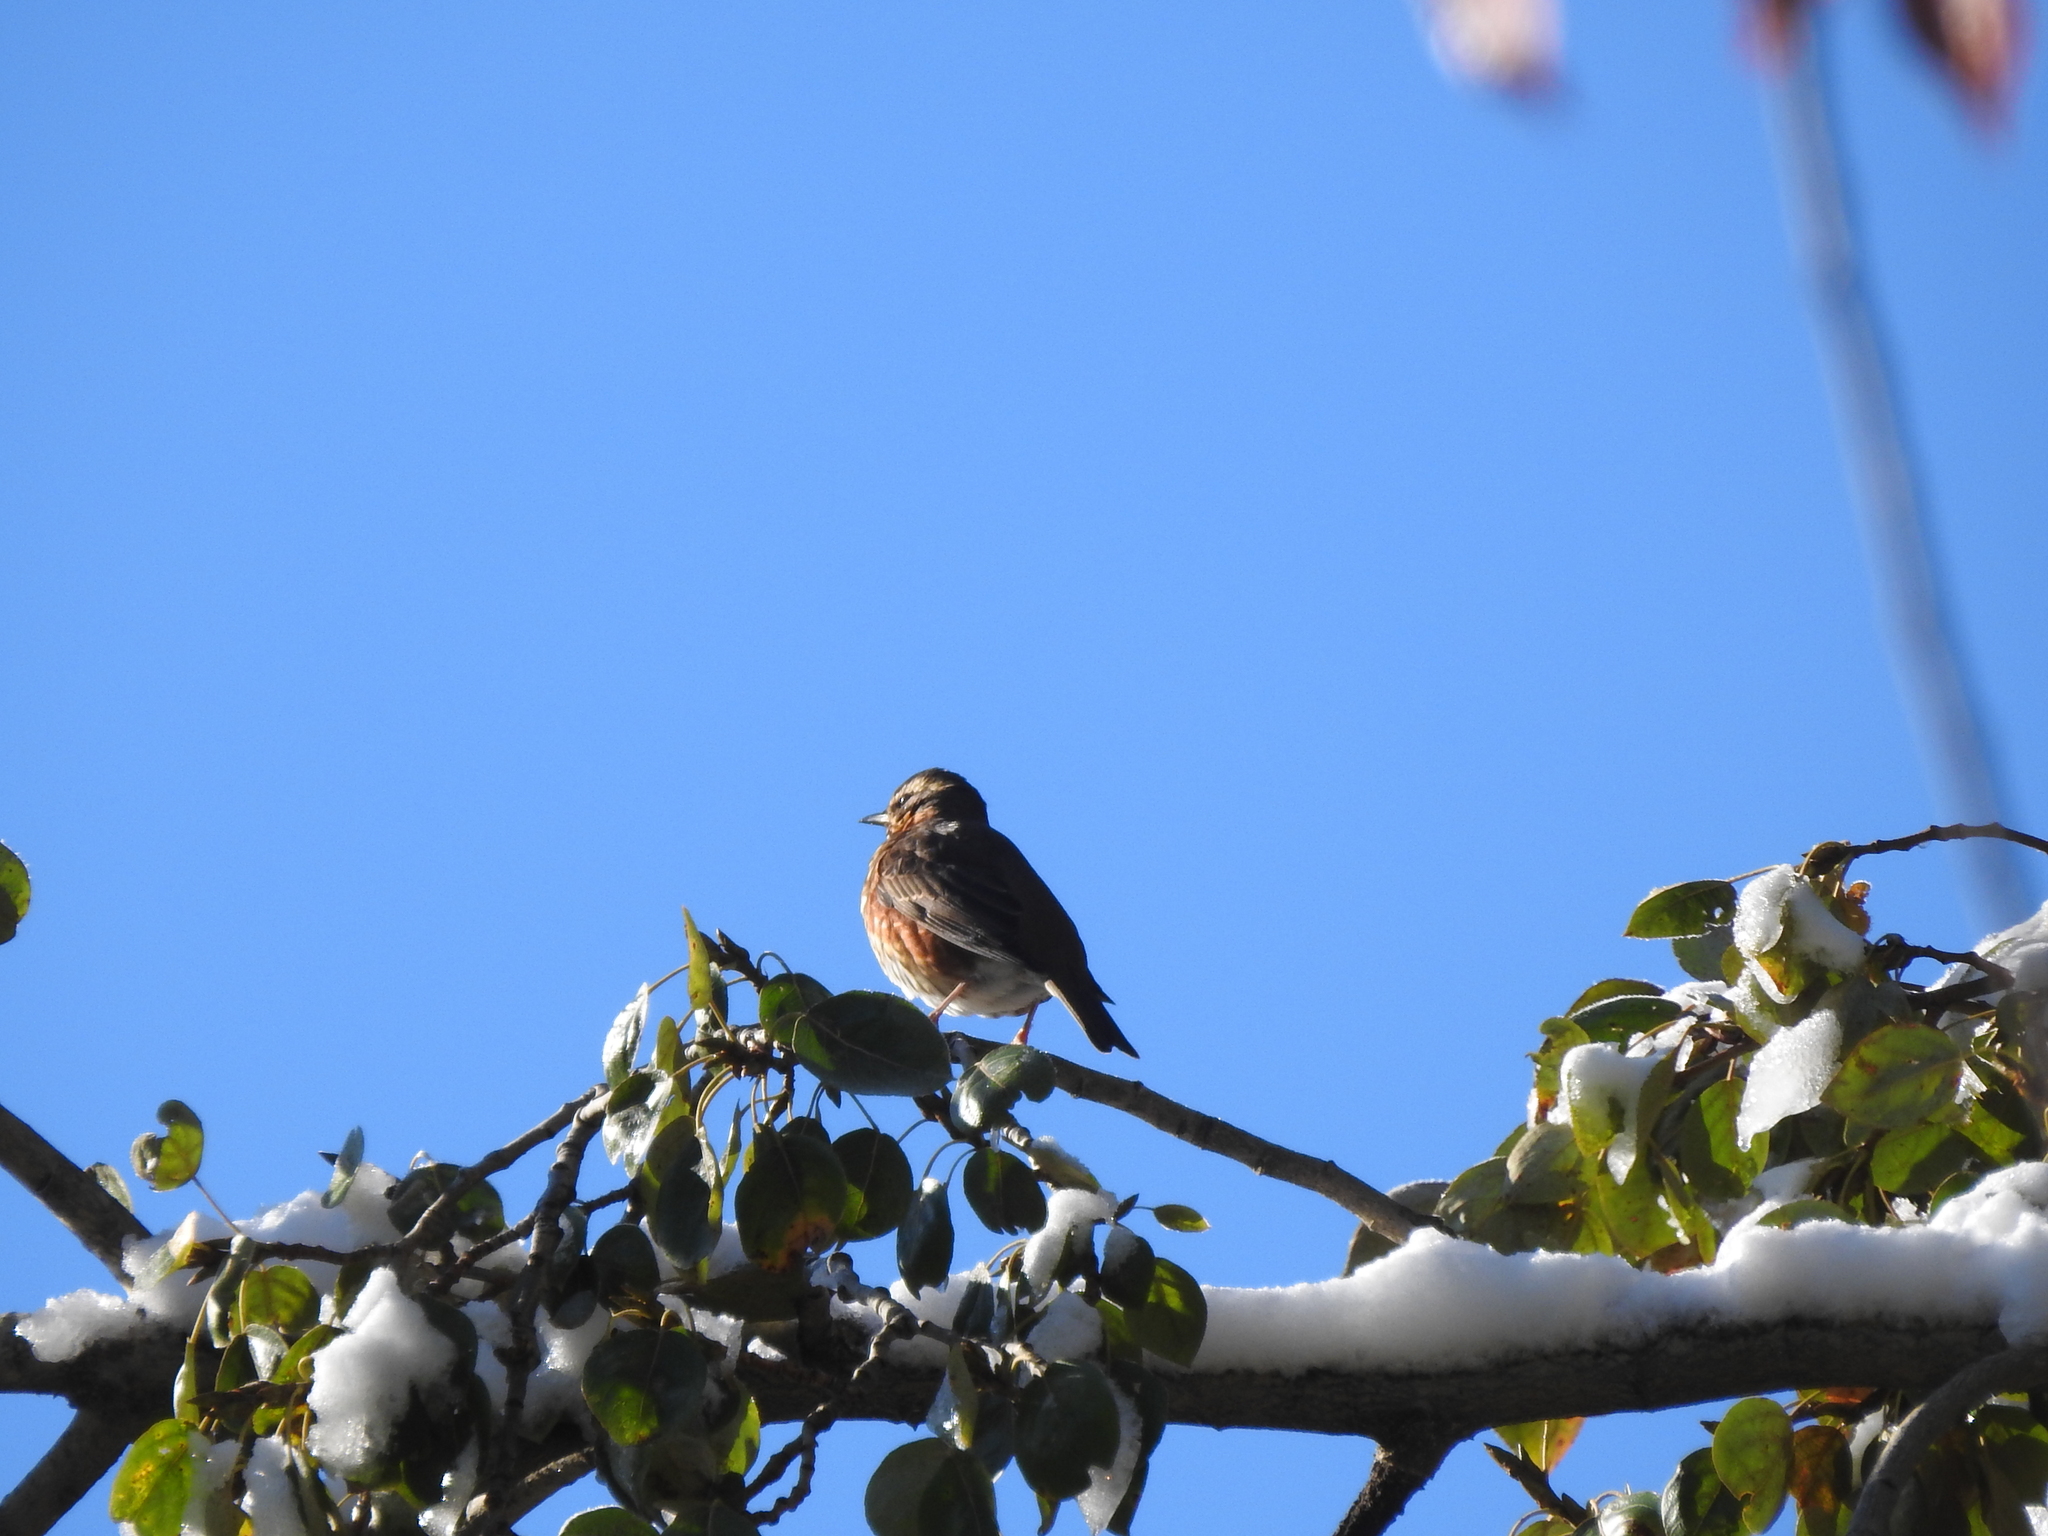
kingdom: Animalia
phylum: Chordata
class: Aves
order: Passeriformes
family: Turdidae
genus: Turdus
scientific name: Turdus iliacus
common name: Redwing
